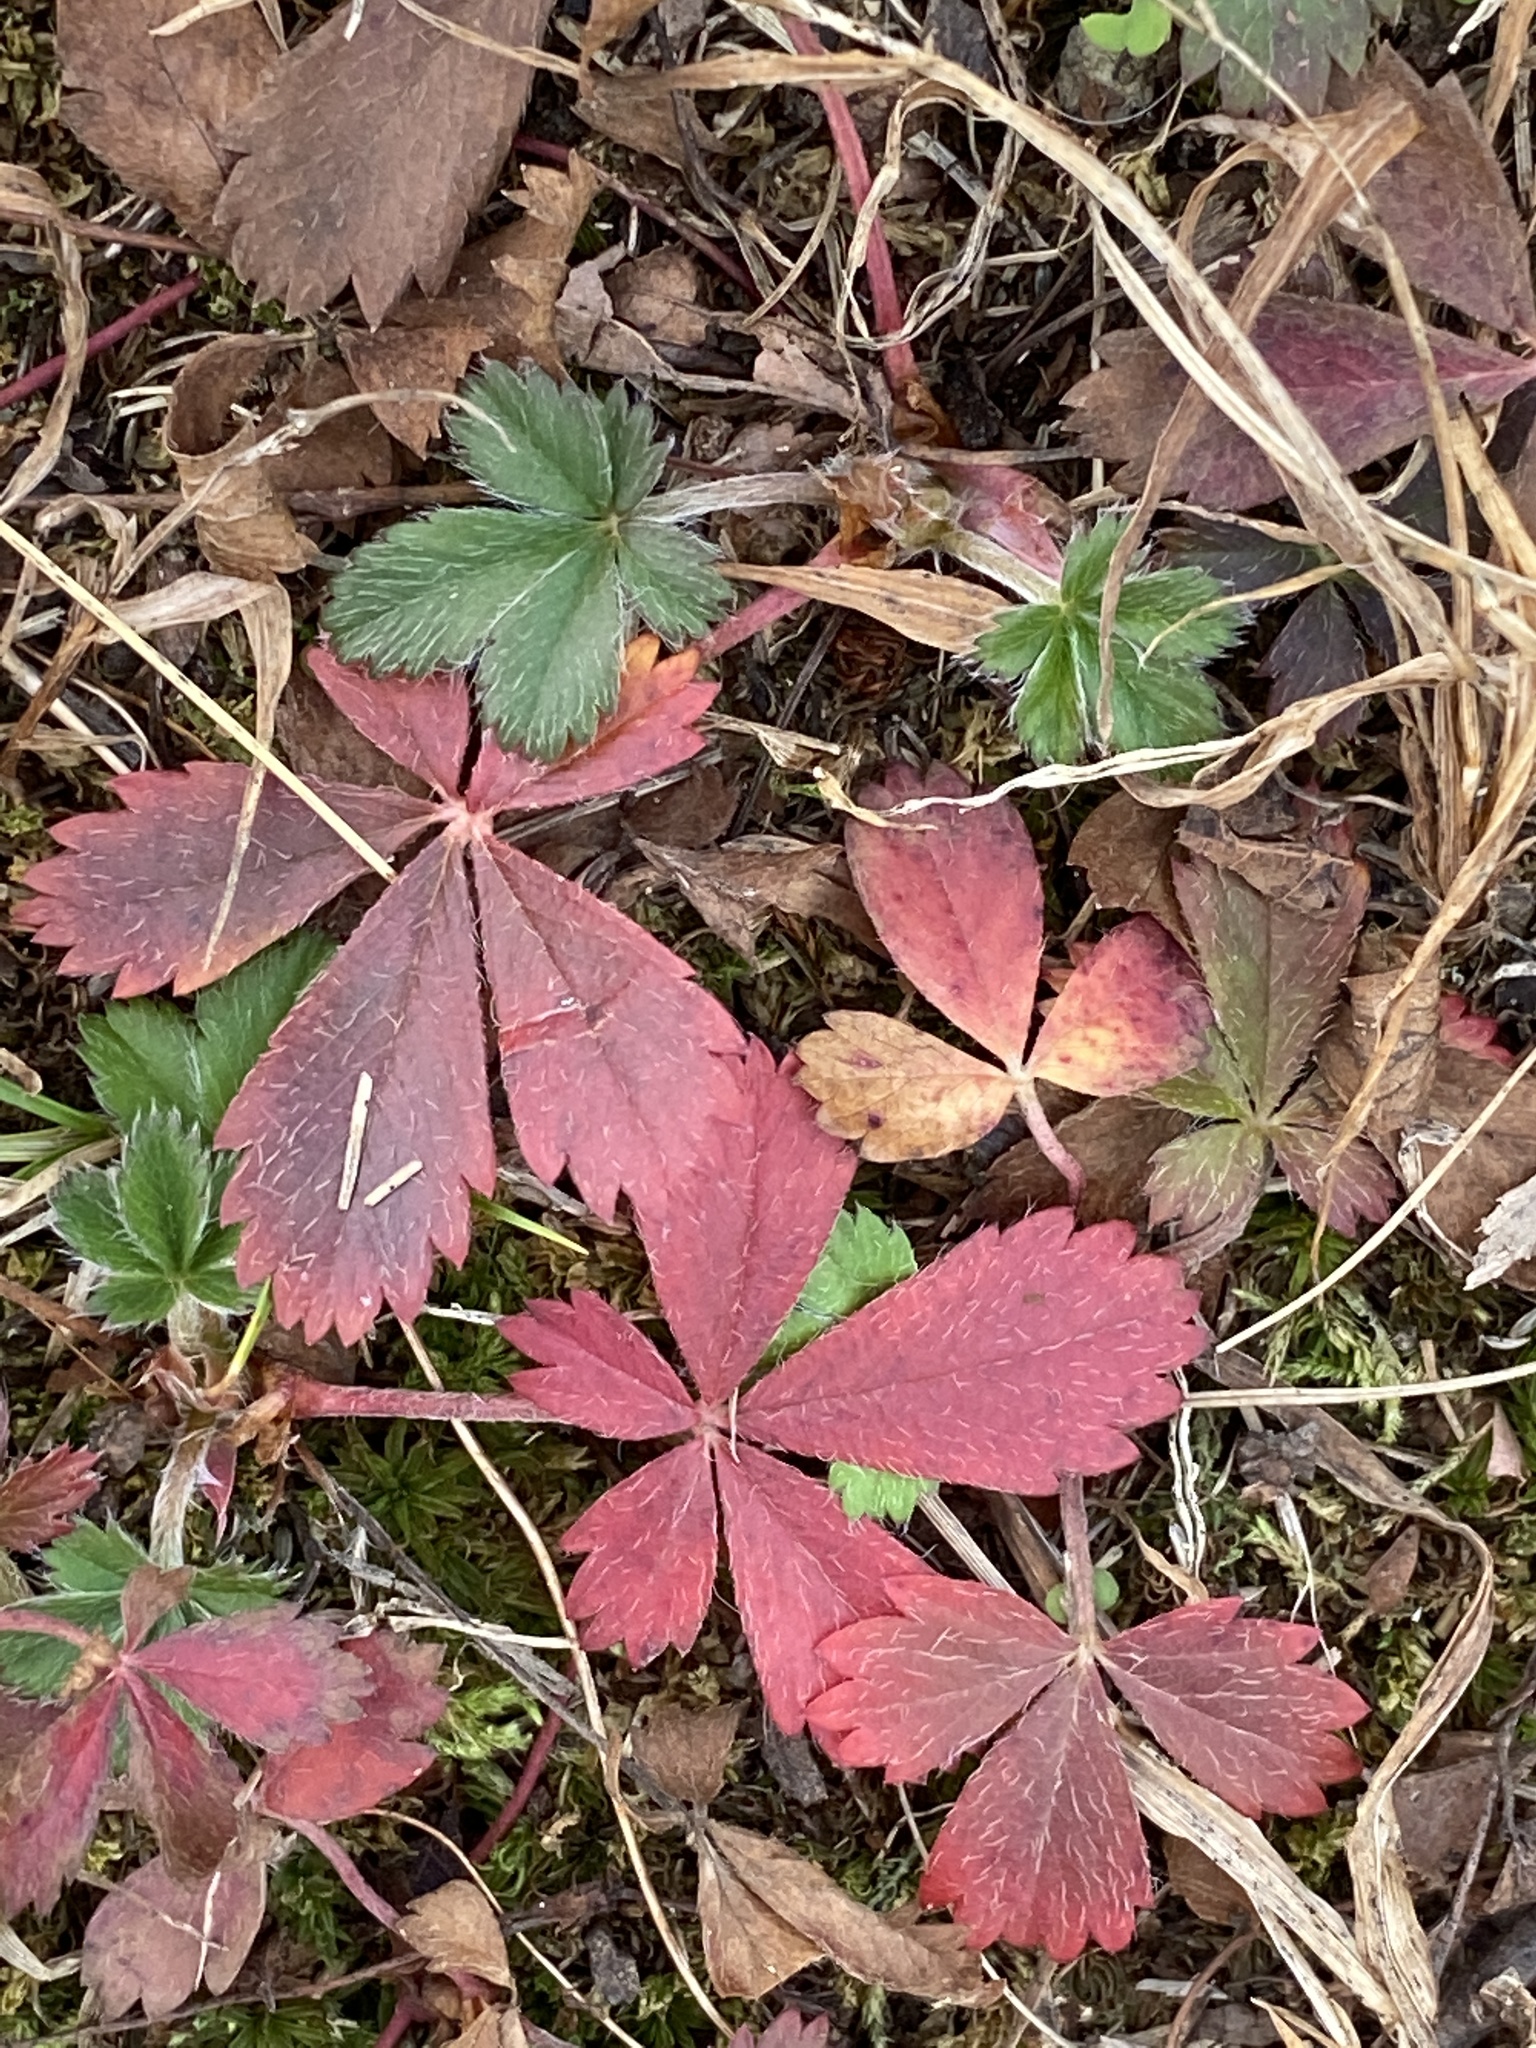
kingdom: Plantae
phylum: Tracheophyta
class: Magnoliopsida
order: Rosales
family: Rosaceae
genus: Potentilla
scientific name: Potentilla canadensis
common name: Canada cinquefoil
